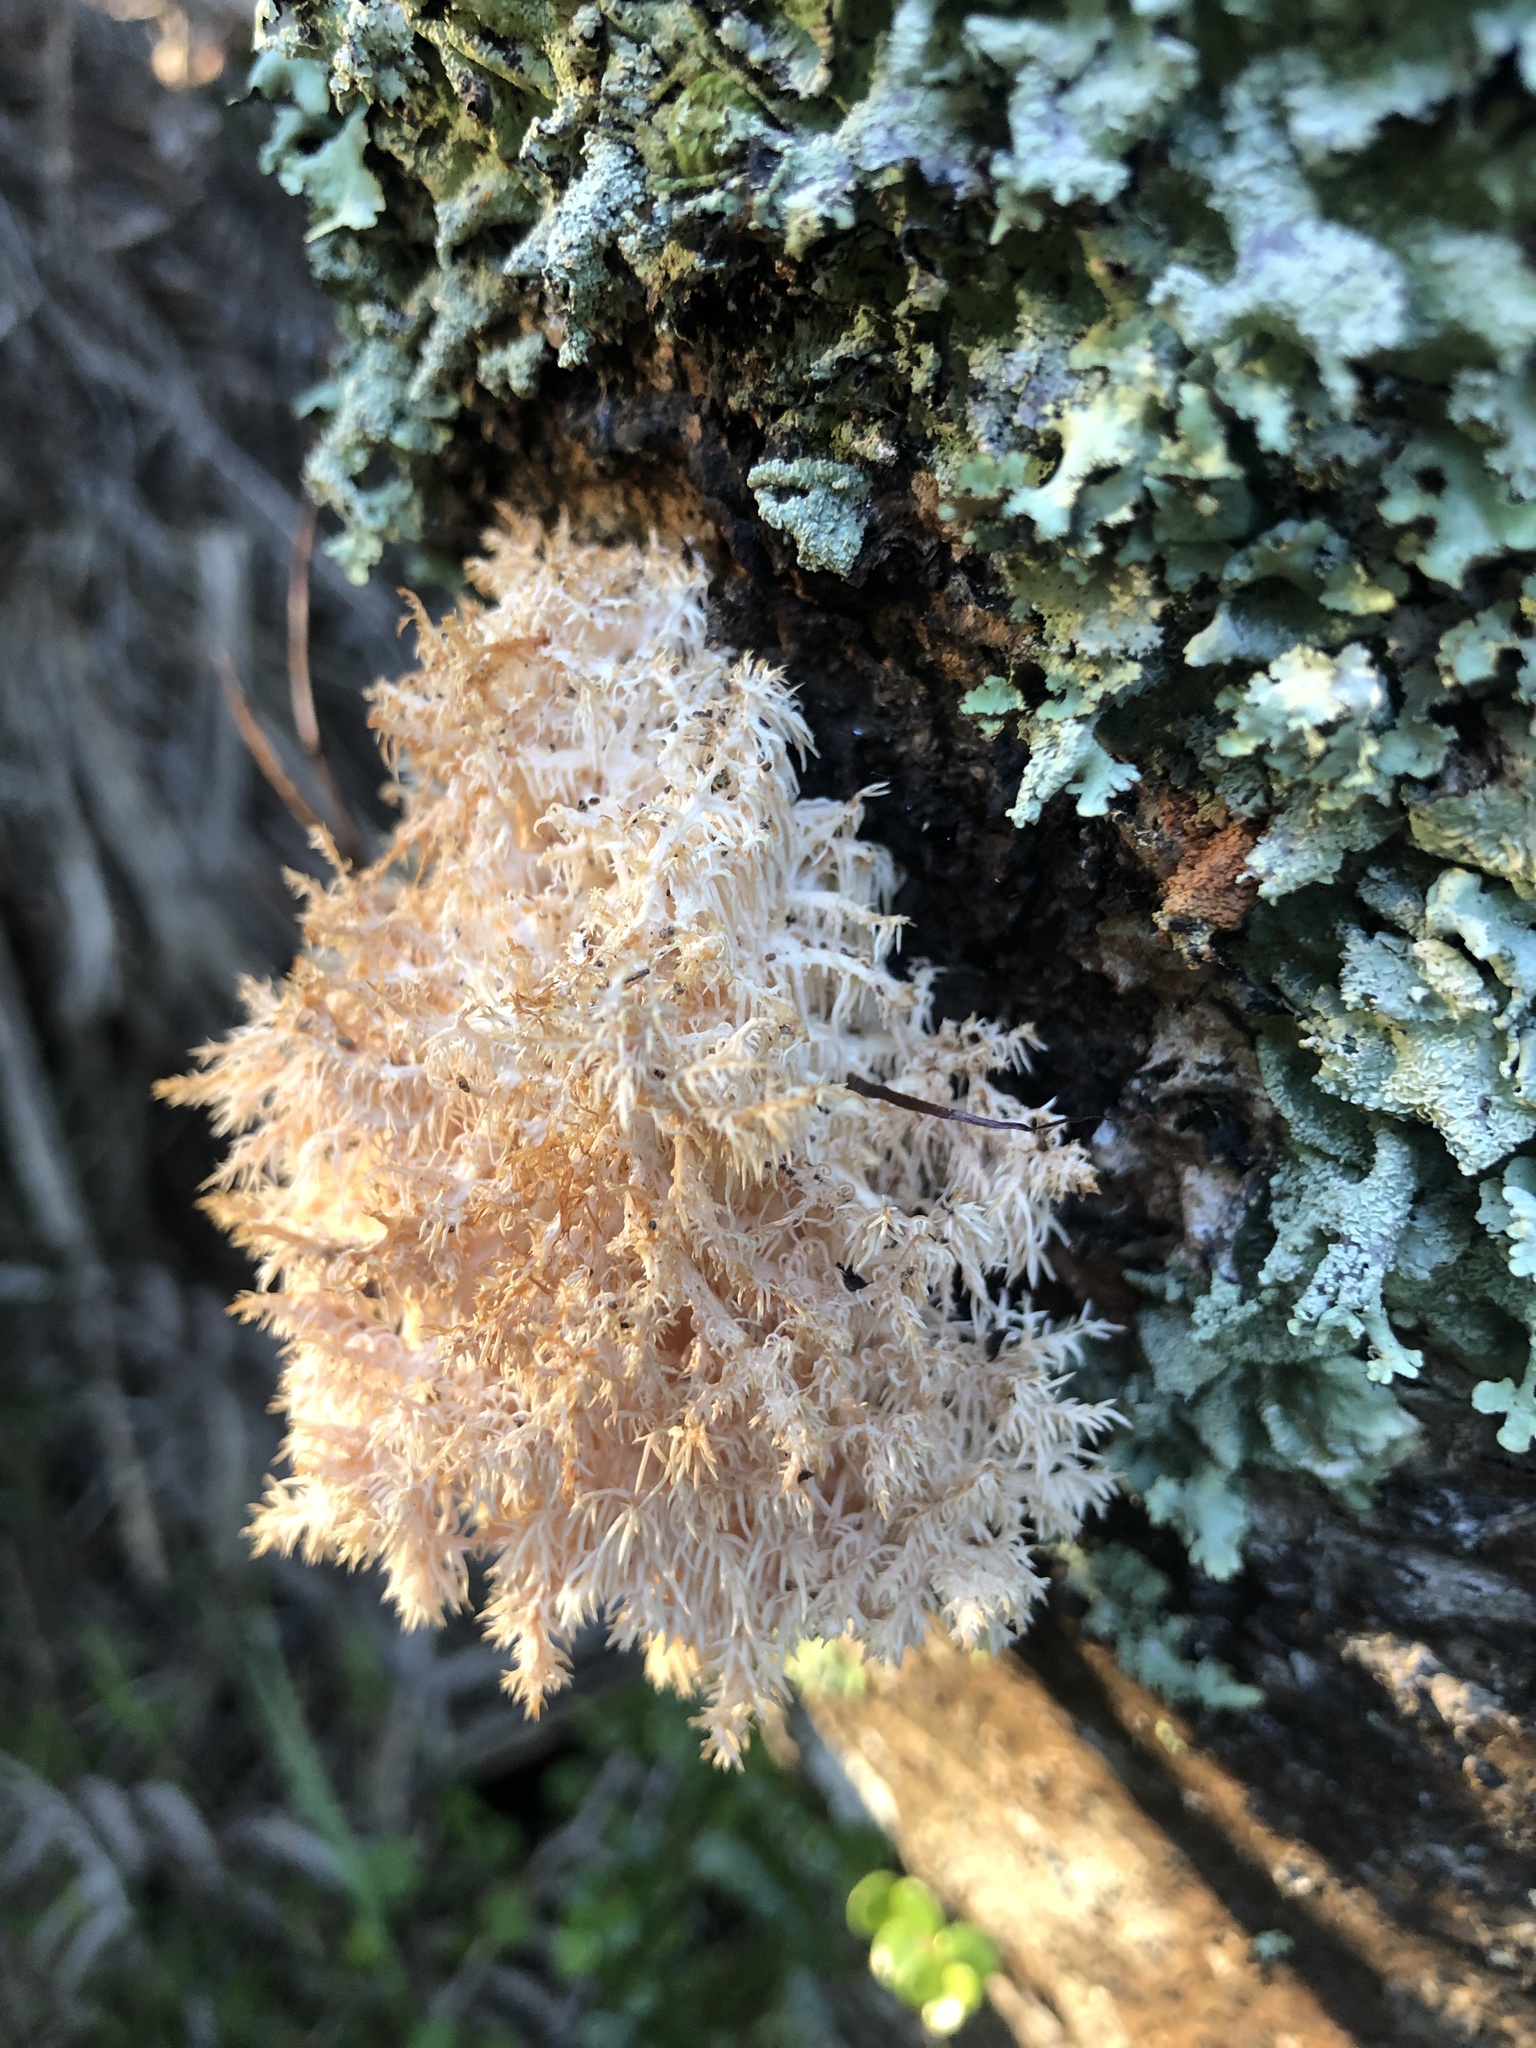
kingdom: Fungi
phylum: Basidiomycota
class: Agaricomycetes
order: Russulales
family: Hericiaceae
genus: Hericium
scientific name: Hericium novae-zealandiae
